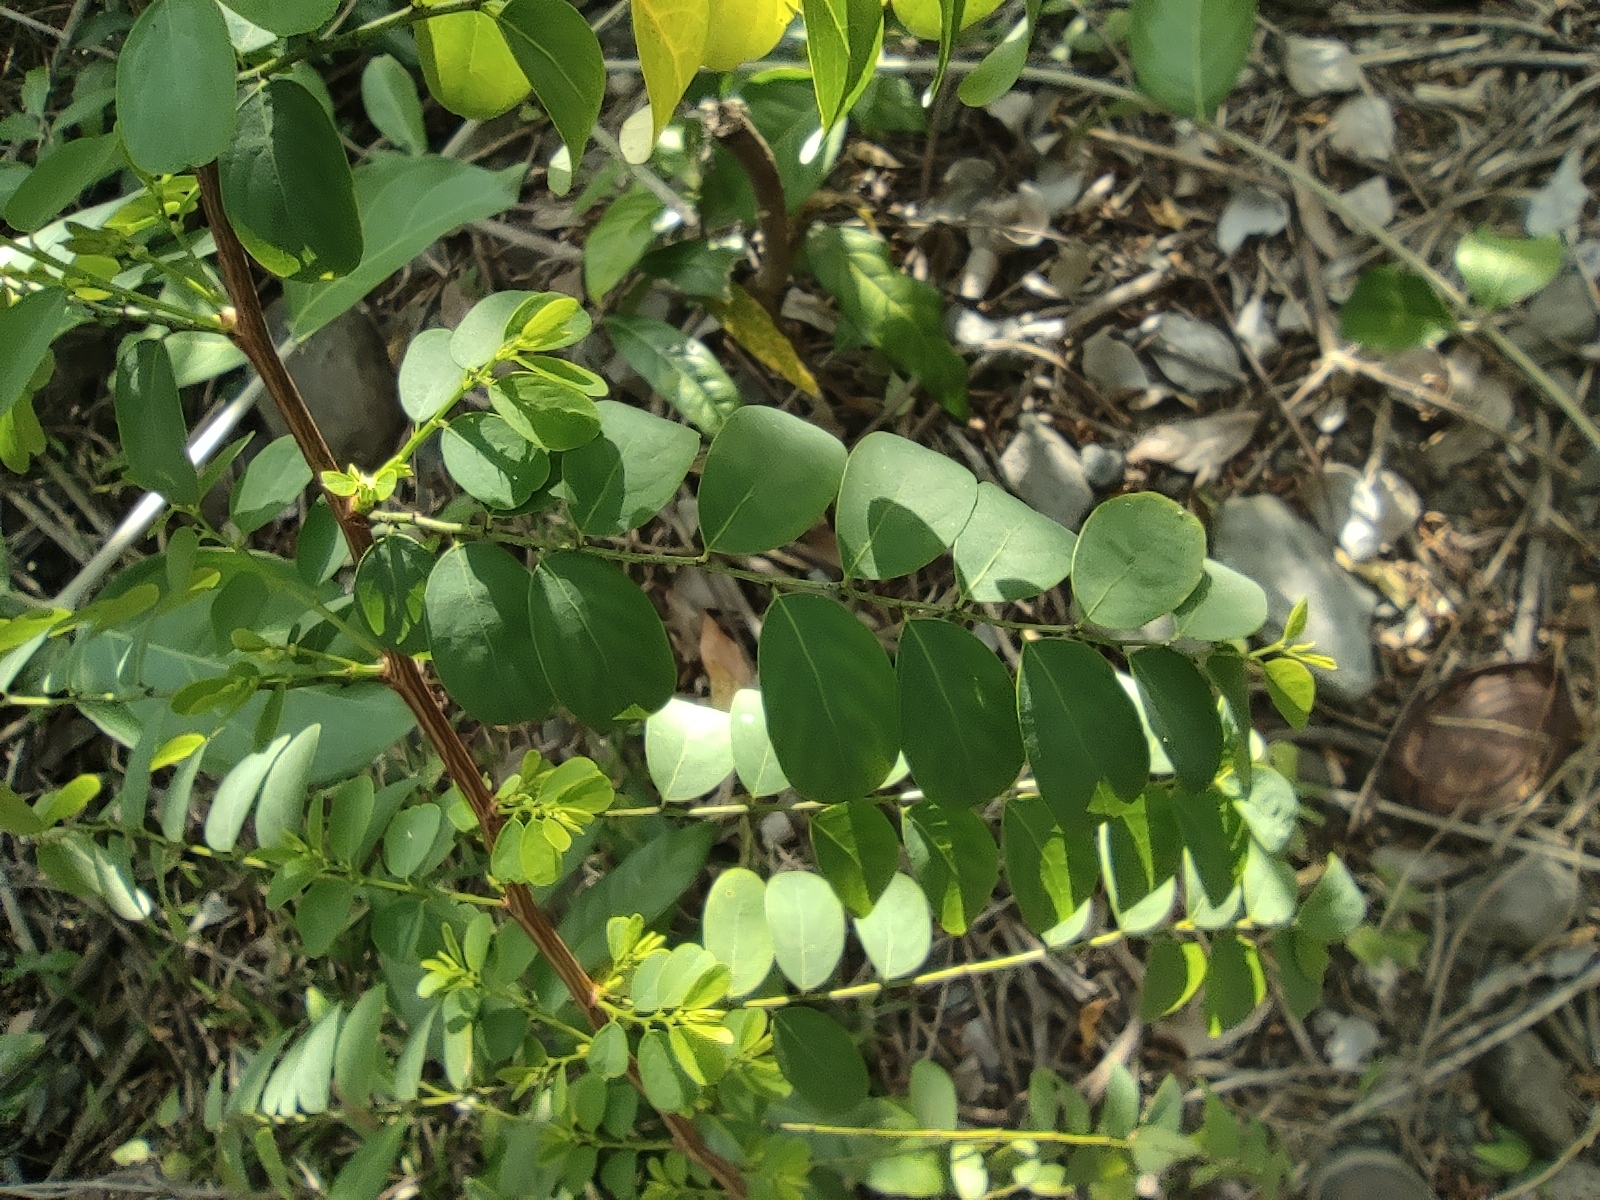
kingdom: Plantae
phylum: Tracheophyta
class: Magnoliopsida
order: Malpighiales
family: Phyllanthaceae
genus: Breynia
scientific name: Breynia retusa
